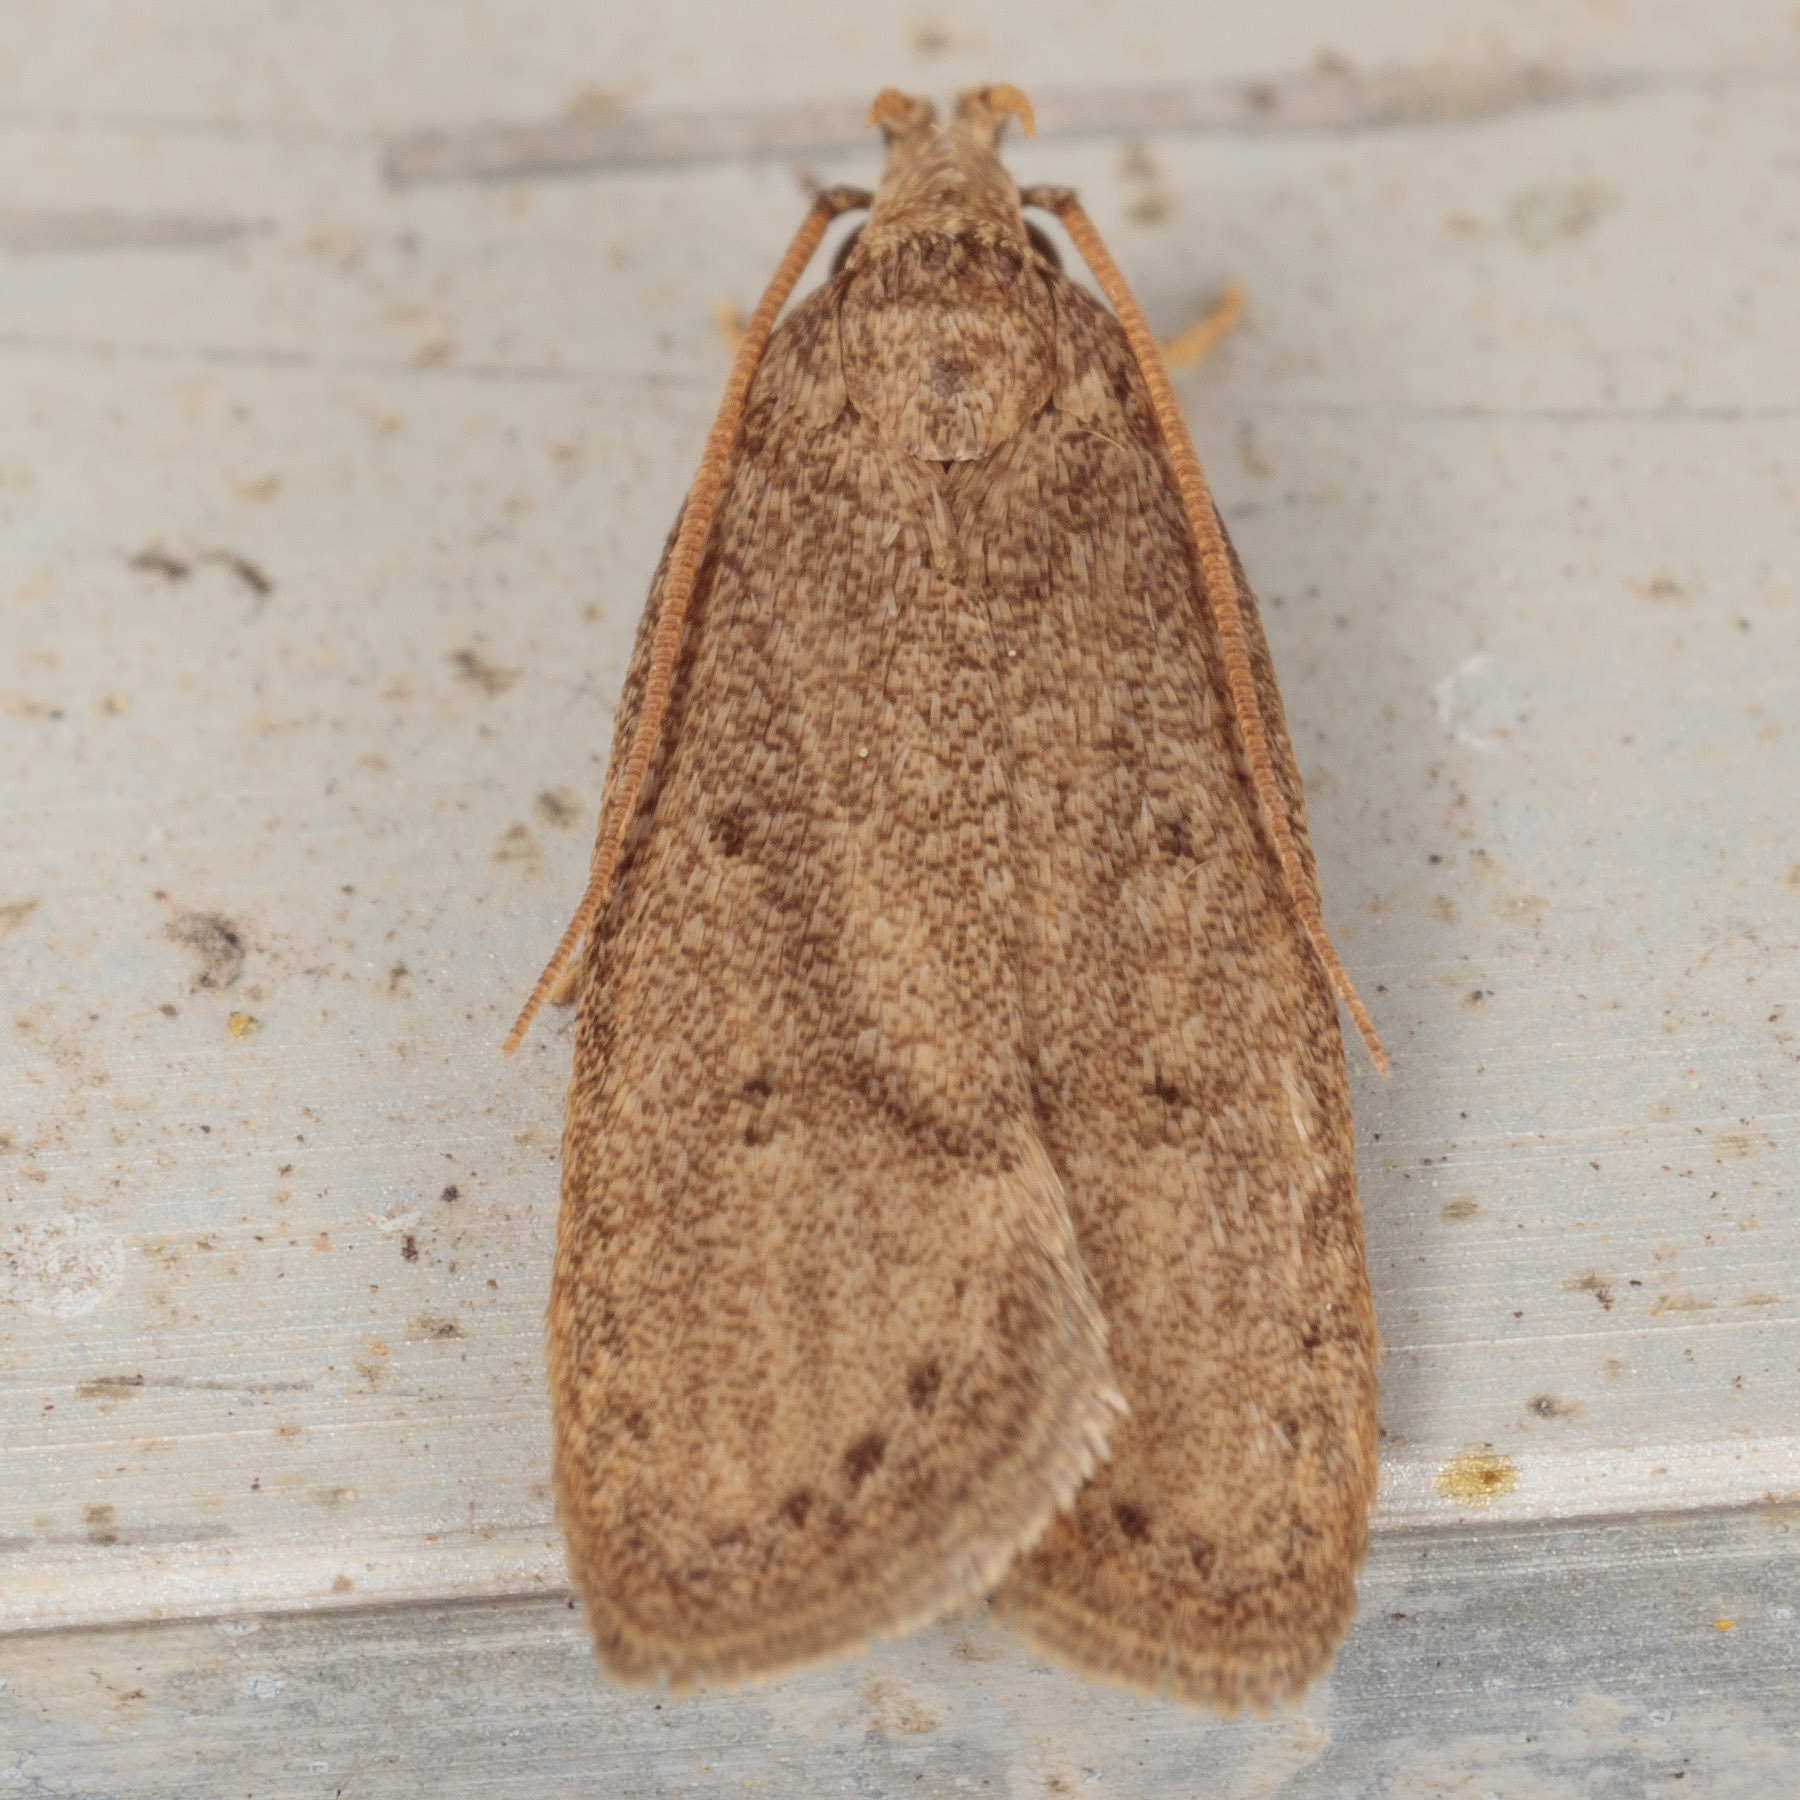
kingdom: Animalia
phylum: Arthropoda
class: Insecta
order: Lepidoptera
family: Autostichidae
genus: Autosticha
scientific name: Autosticha kyotensis
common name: Kyoto moth
